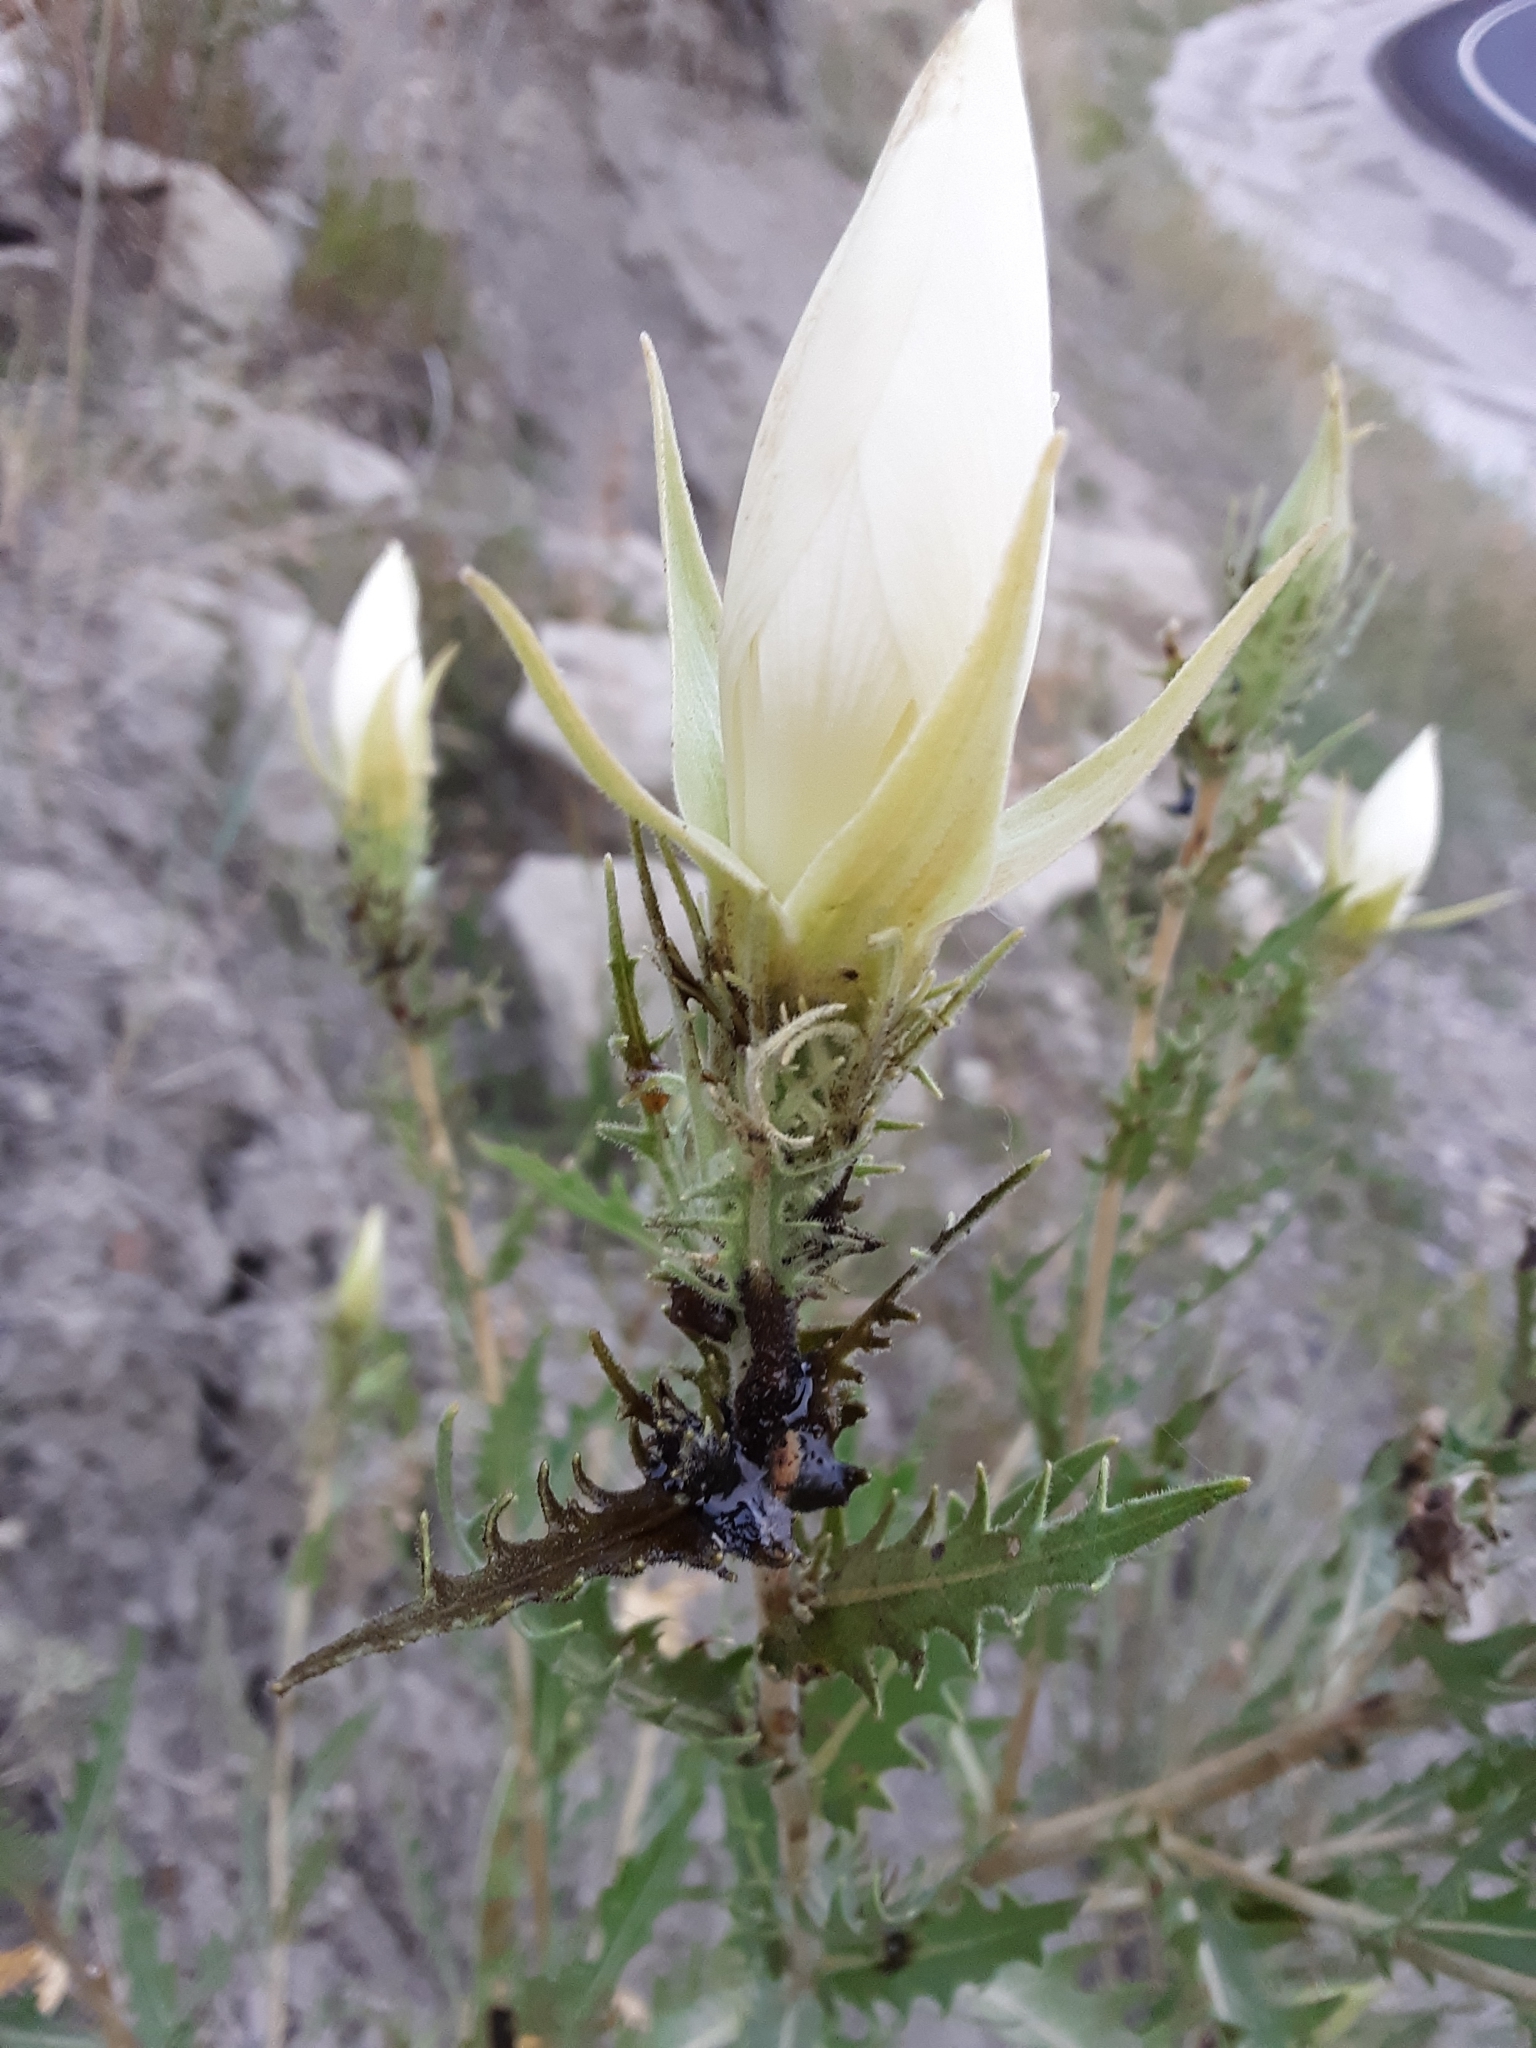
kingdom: Plantae
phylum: Tracheophyta
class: Magnoliopsida
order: Cornales
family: Loasaceae
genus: Mentzelia
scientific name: Mentzelia decapetala
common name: Gumbo-lily
